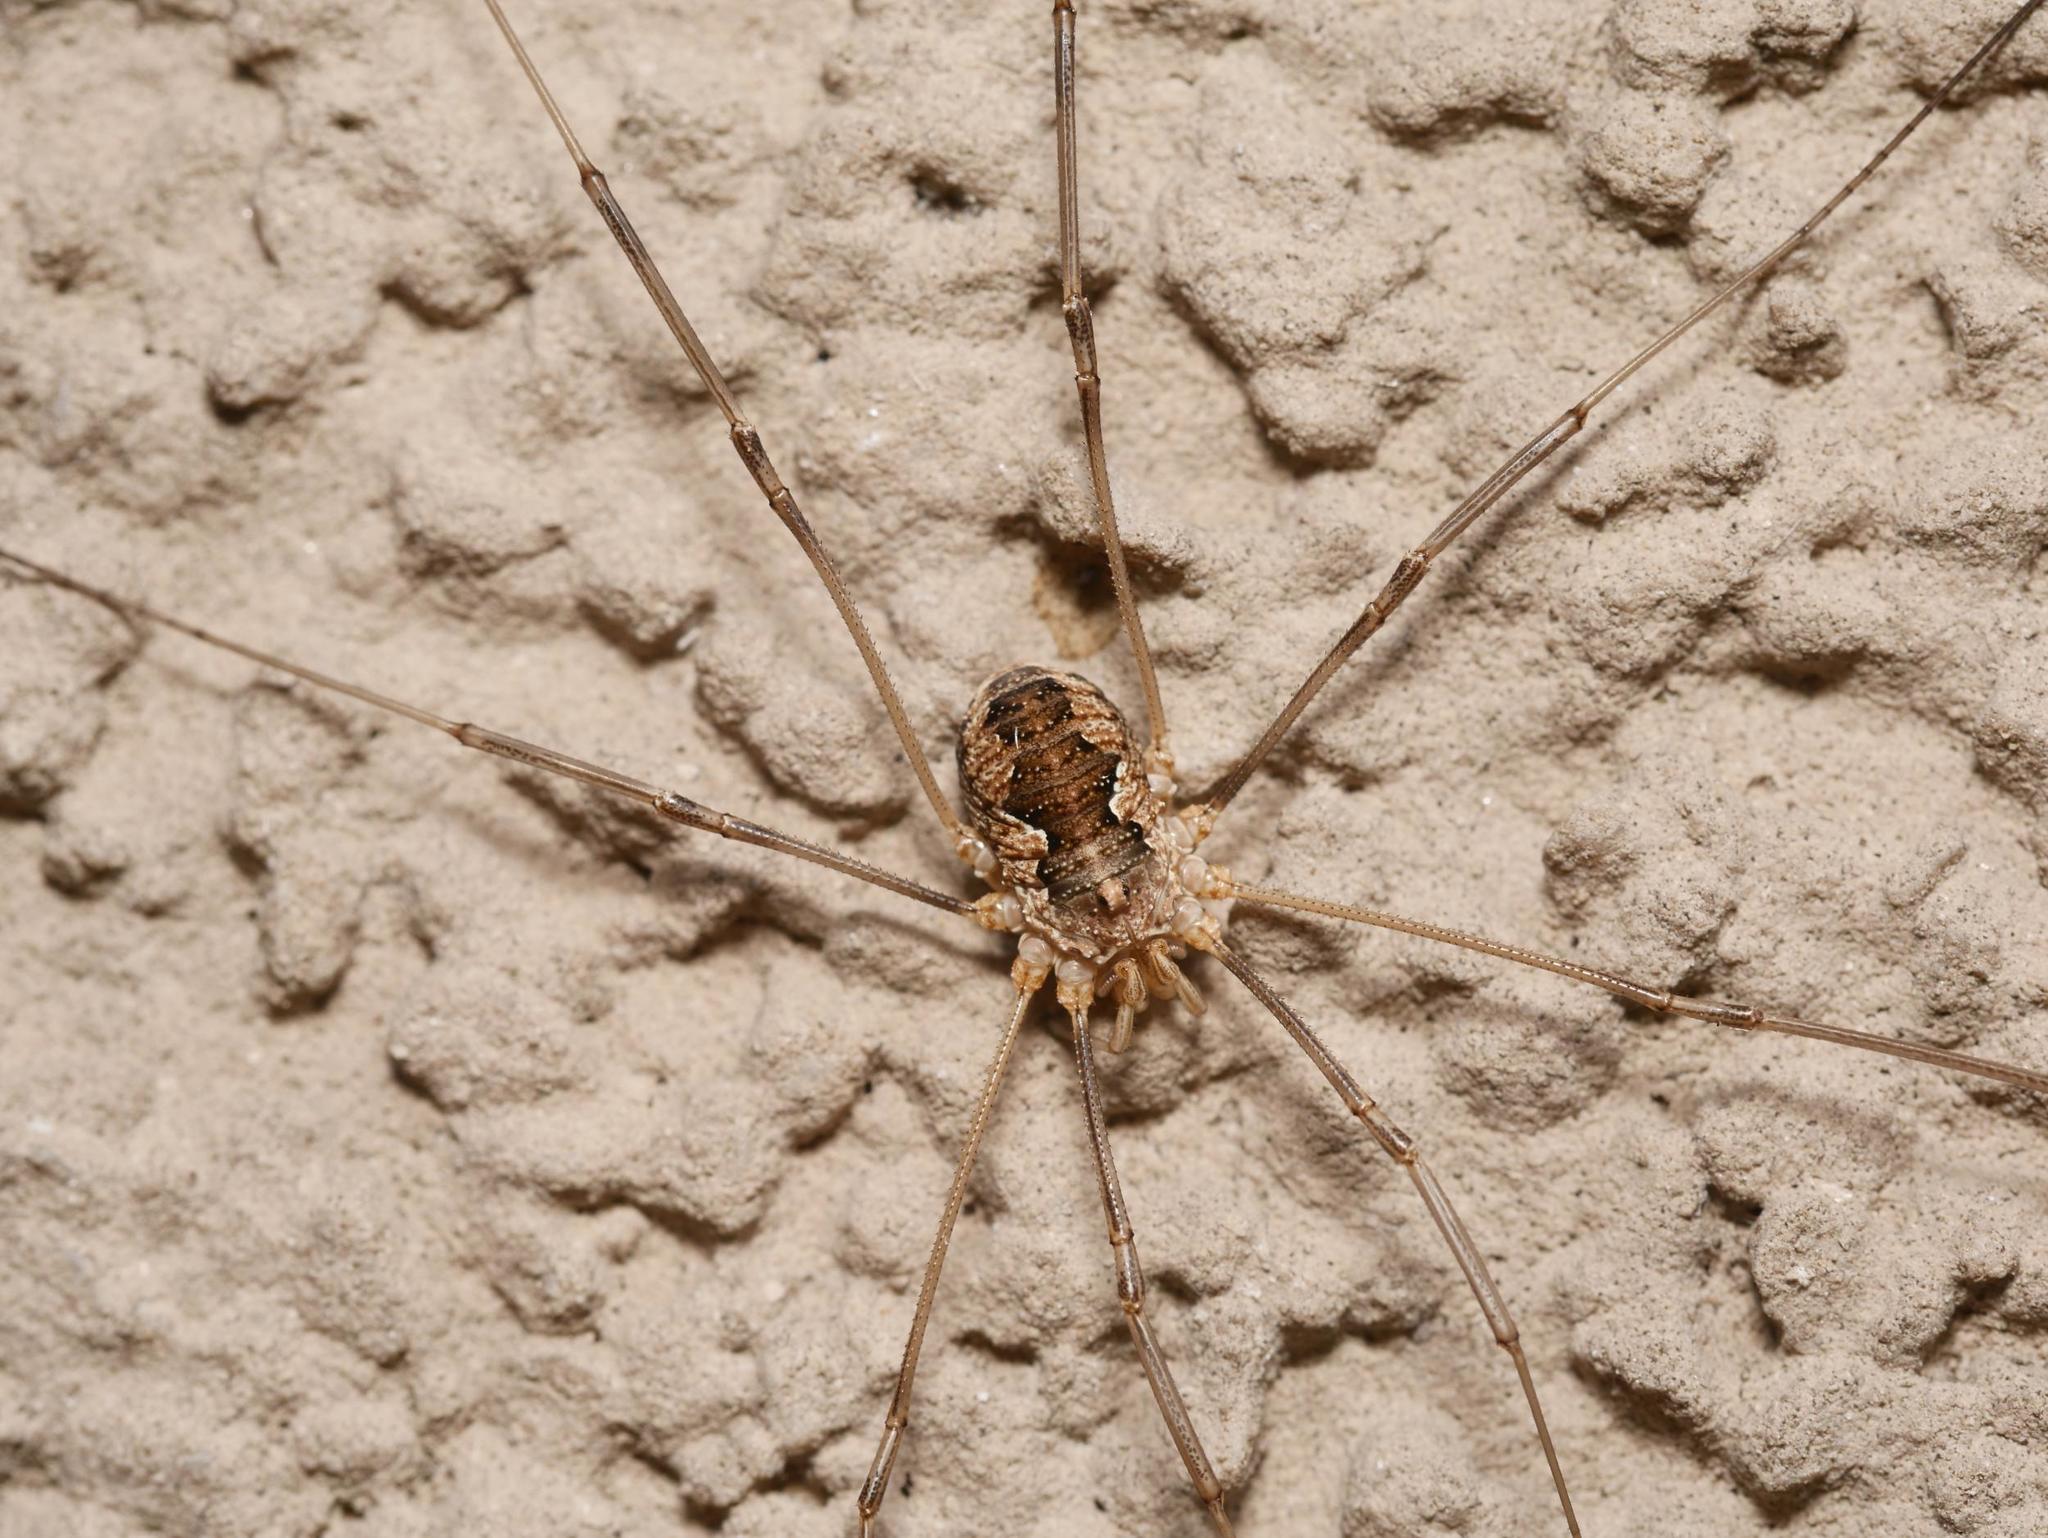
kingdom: Animalia
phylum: Arthropoda
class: Arachnida
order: Opiliones
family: Phalangiidae
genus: Phalangium
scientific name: Phalangium opilio
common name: Daddy longleg
